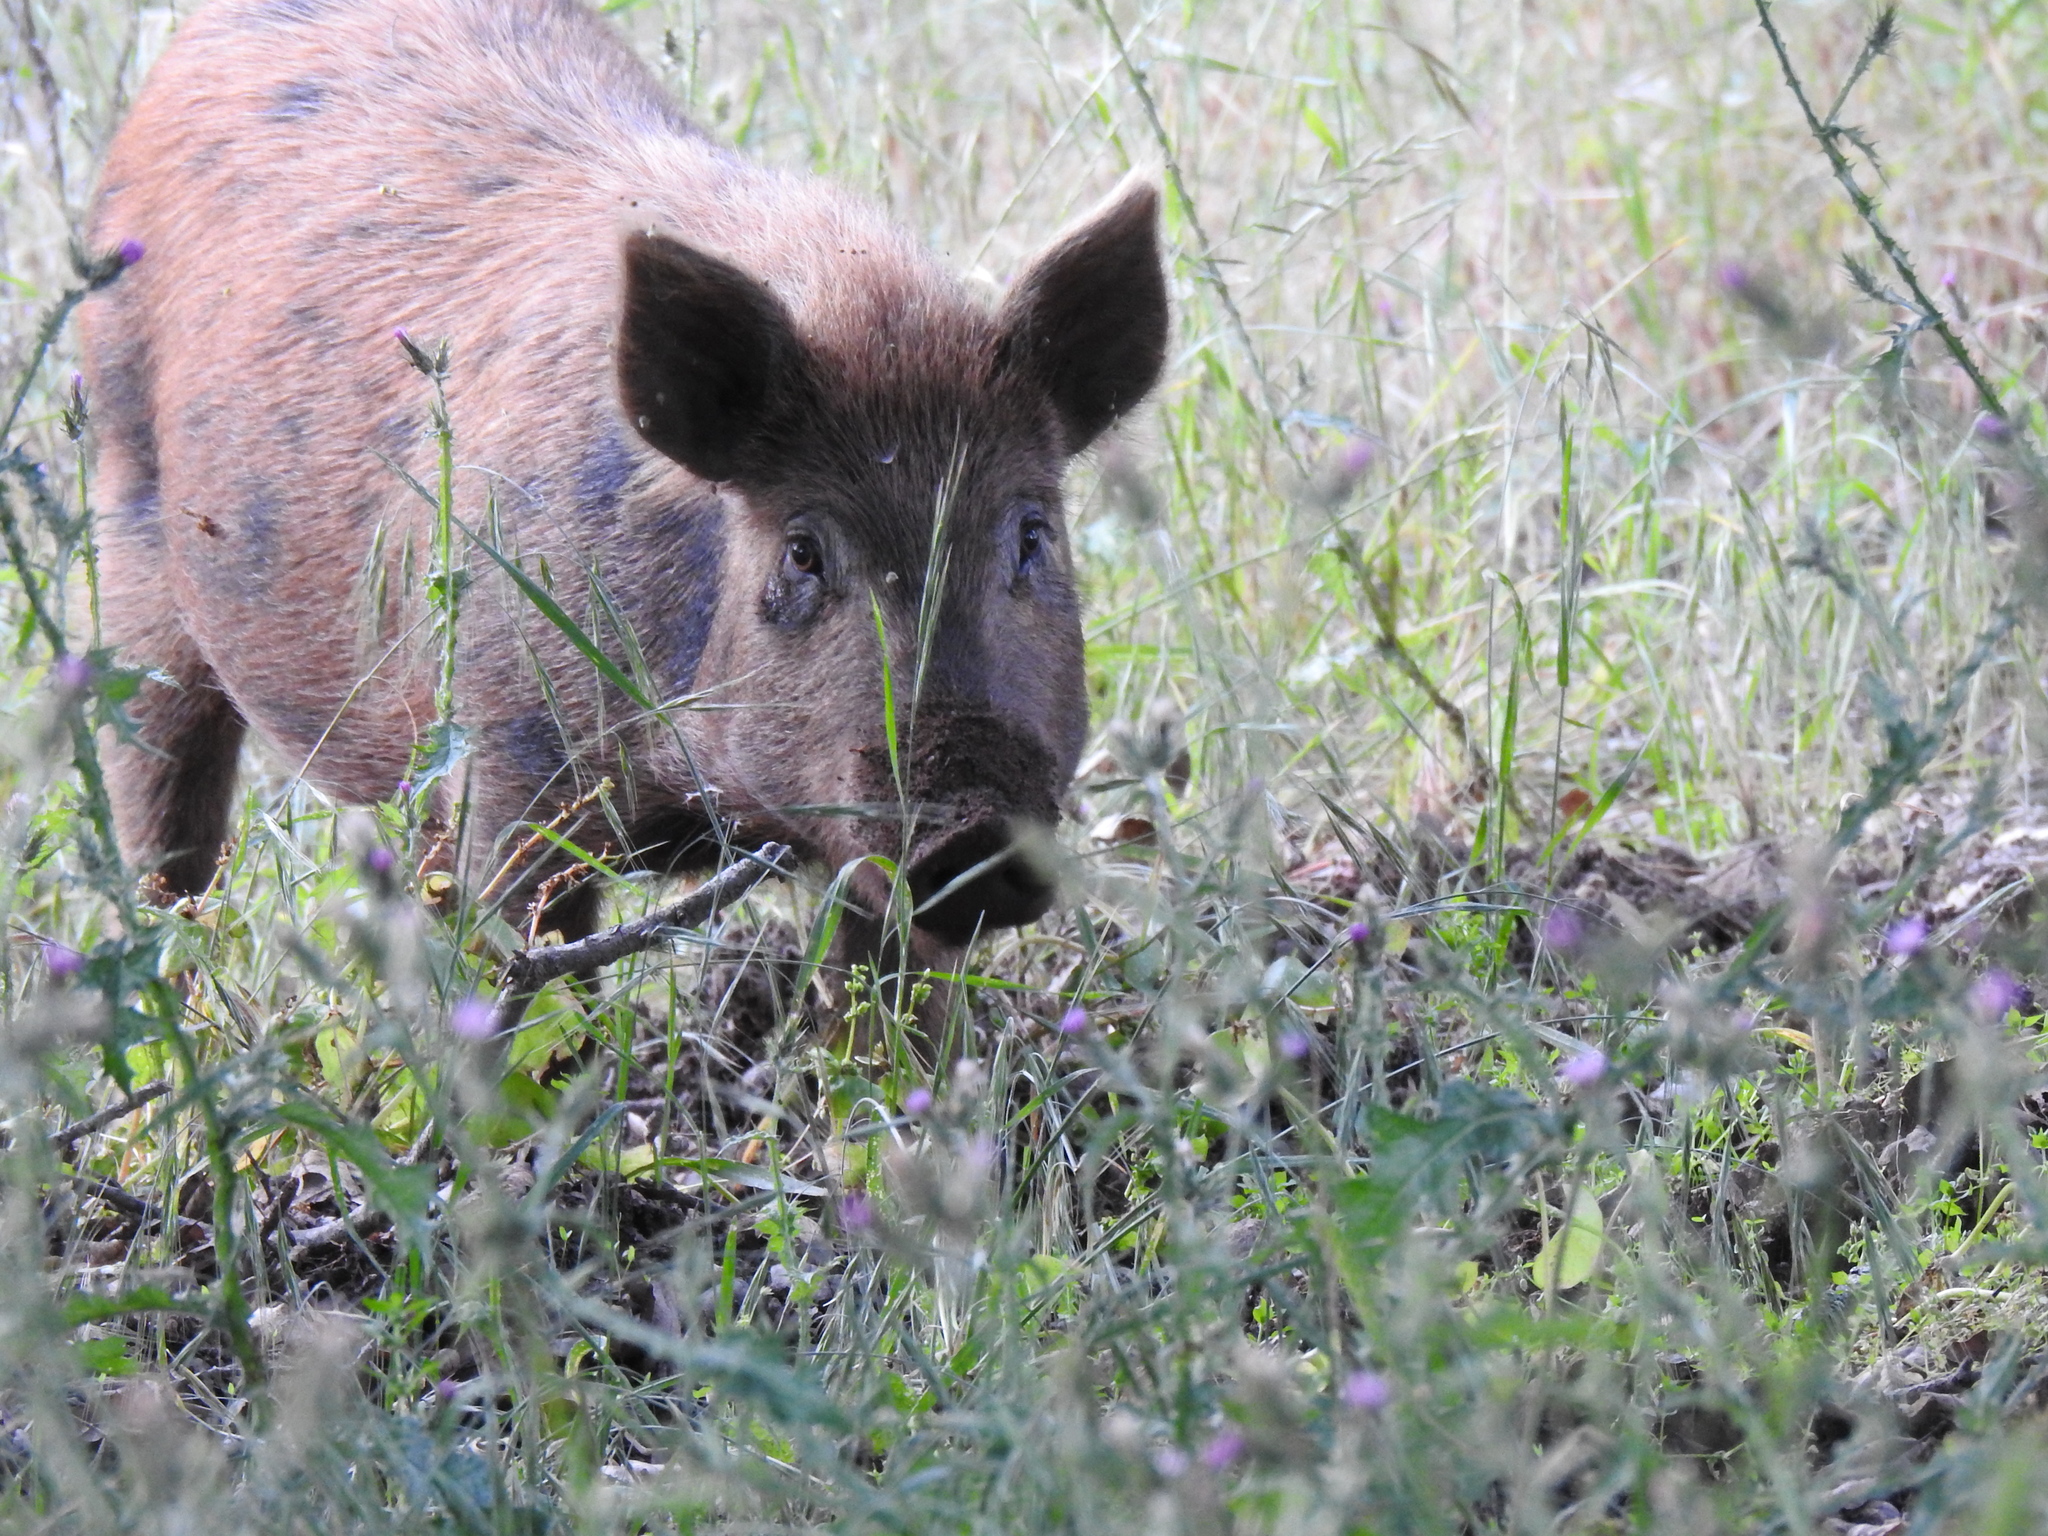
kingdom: Animalia
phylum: Chordata
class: Mammalia
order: Artiodactyla
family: Suidae
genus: Sus
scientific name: Sus scrofa
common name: Wild boar
